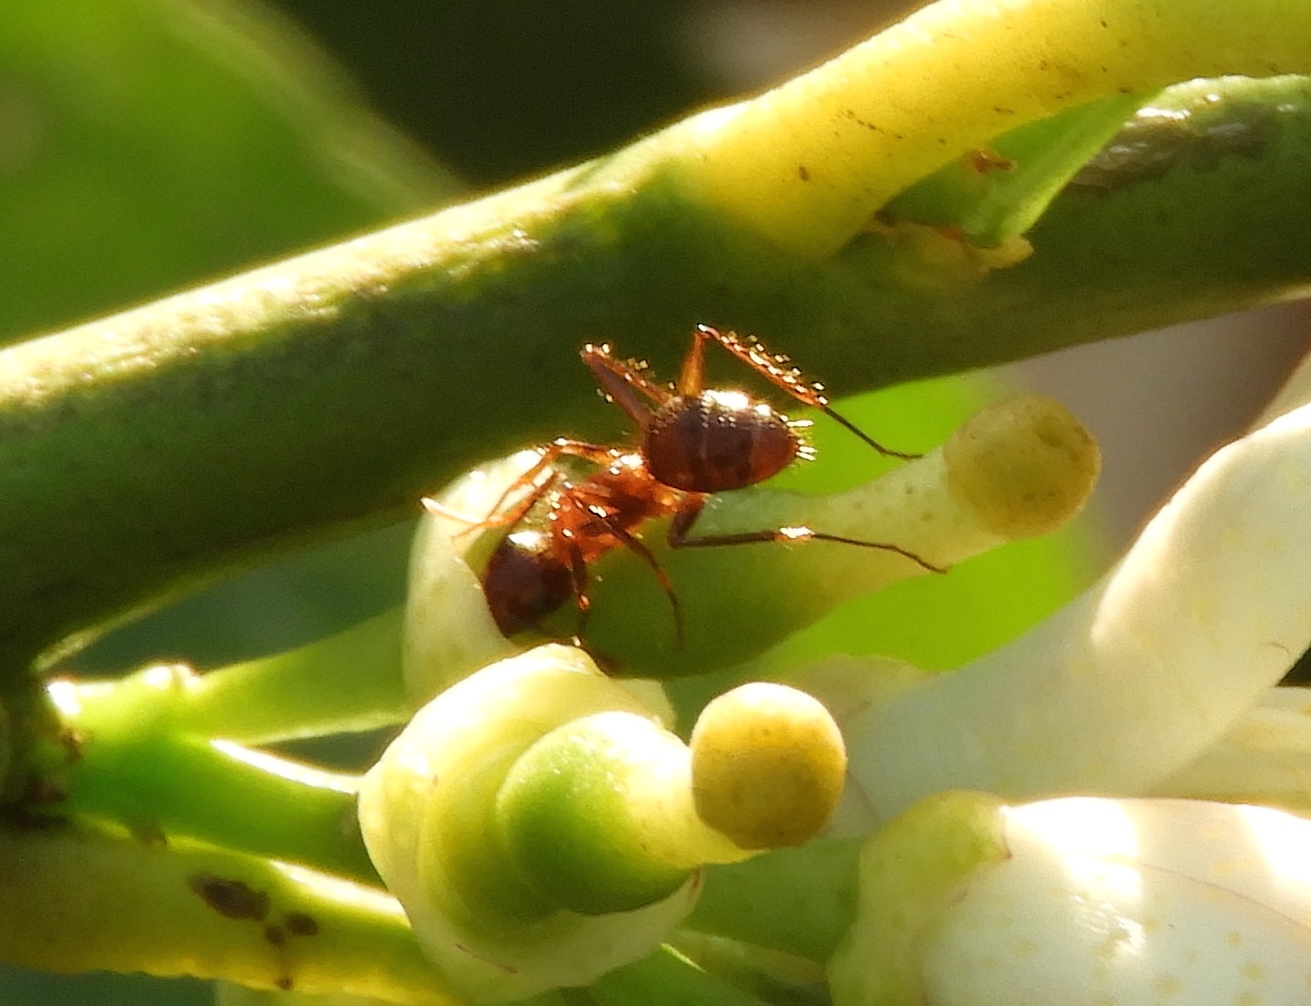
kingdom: Animalia
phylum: Arthropoda
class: Insecta
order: Hymenoptera
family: Formicidae
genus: Camponotus
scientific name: Camponotus
